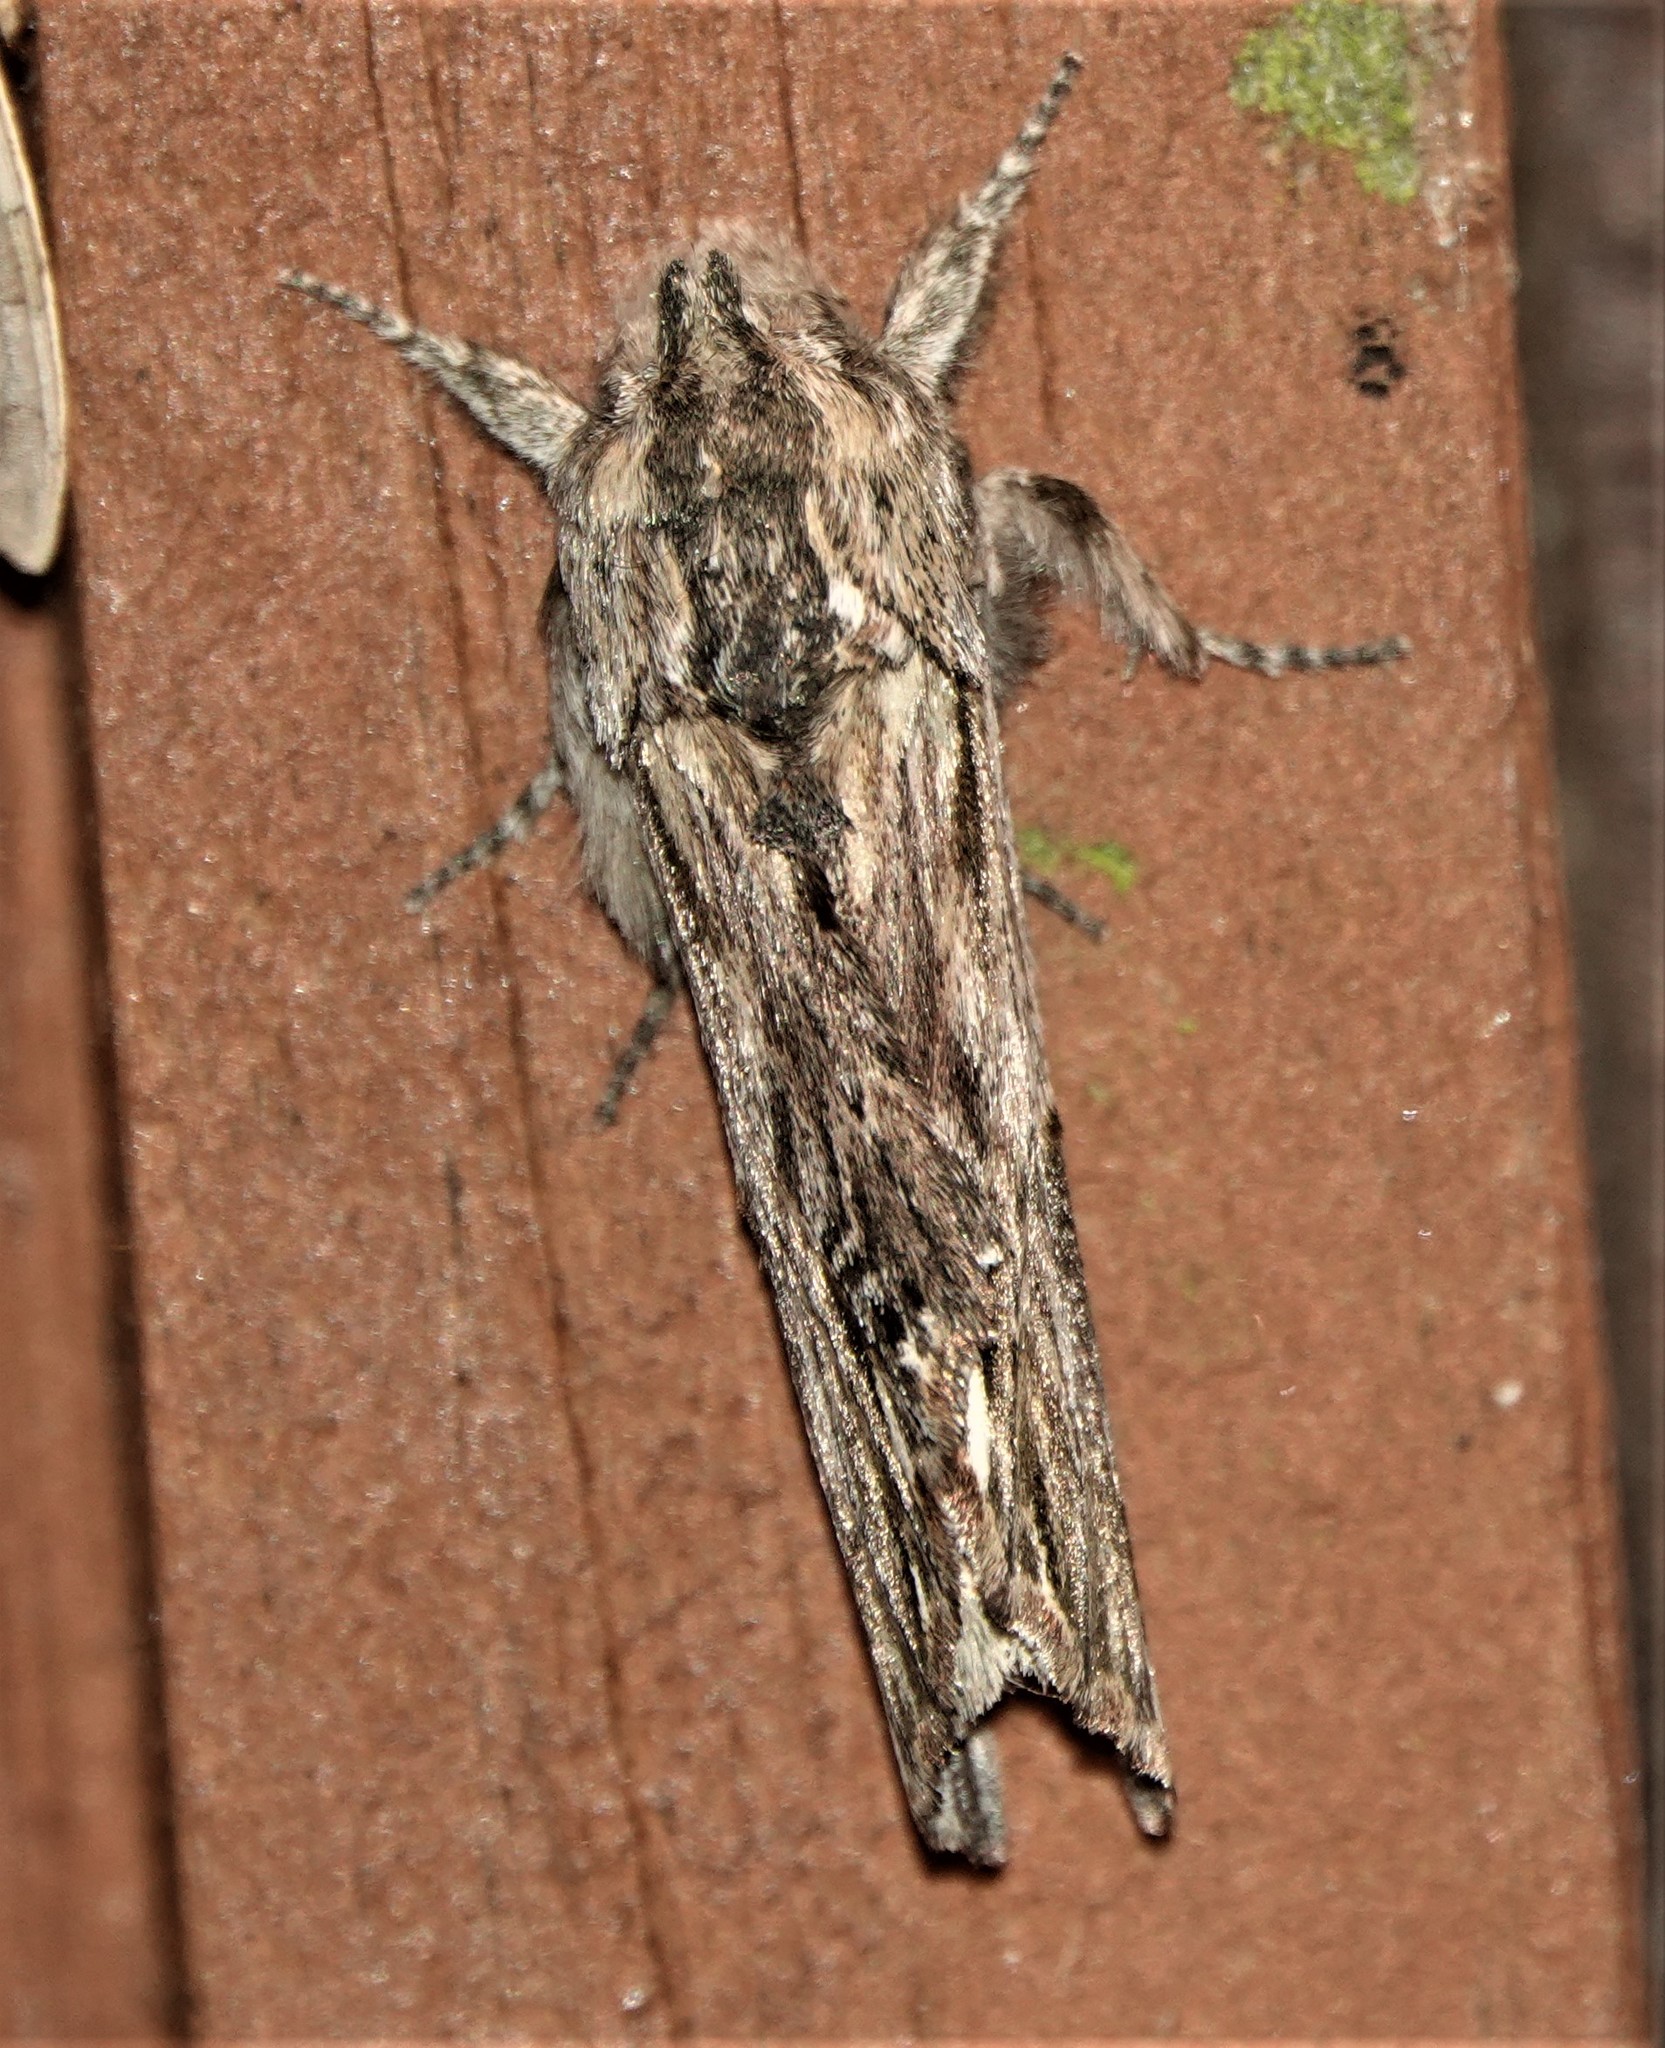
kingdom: Animalia
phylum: Arthropoda
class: Insecta
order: Lepidoptera
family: Notodontidae
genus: Oligocentria
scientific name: Oligocentria Ianassa lignicolor
